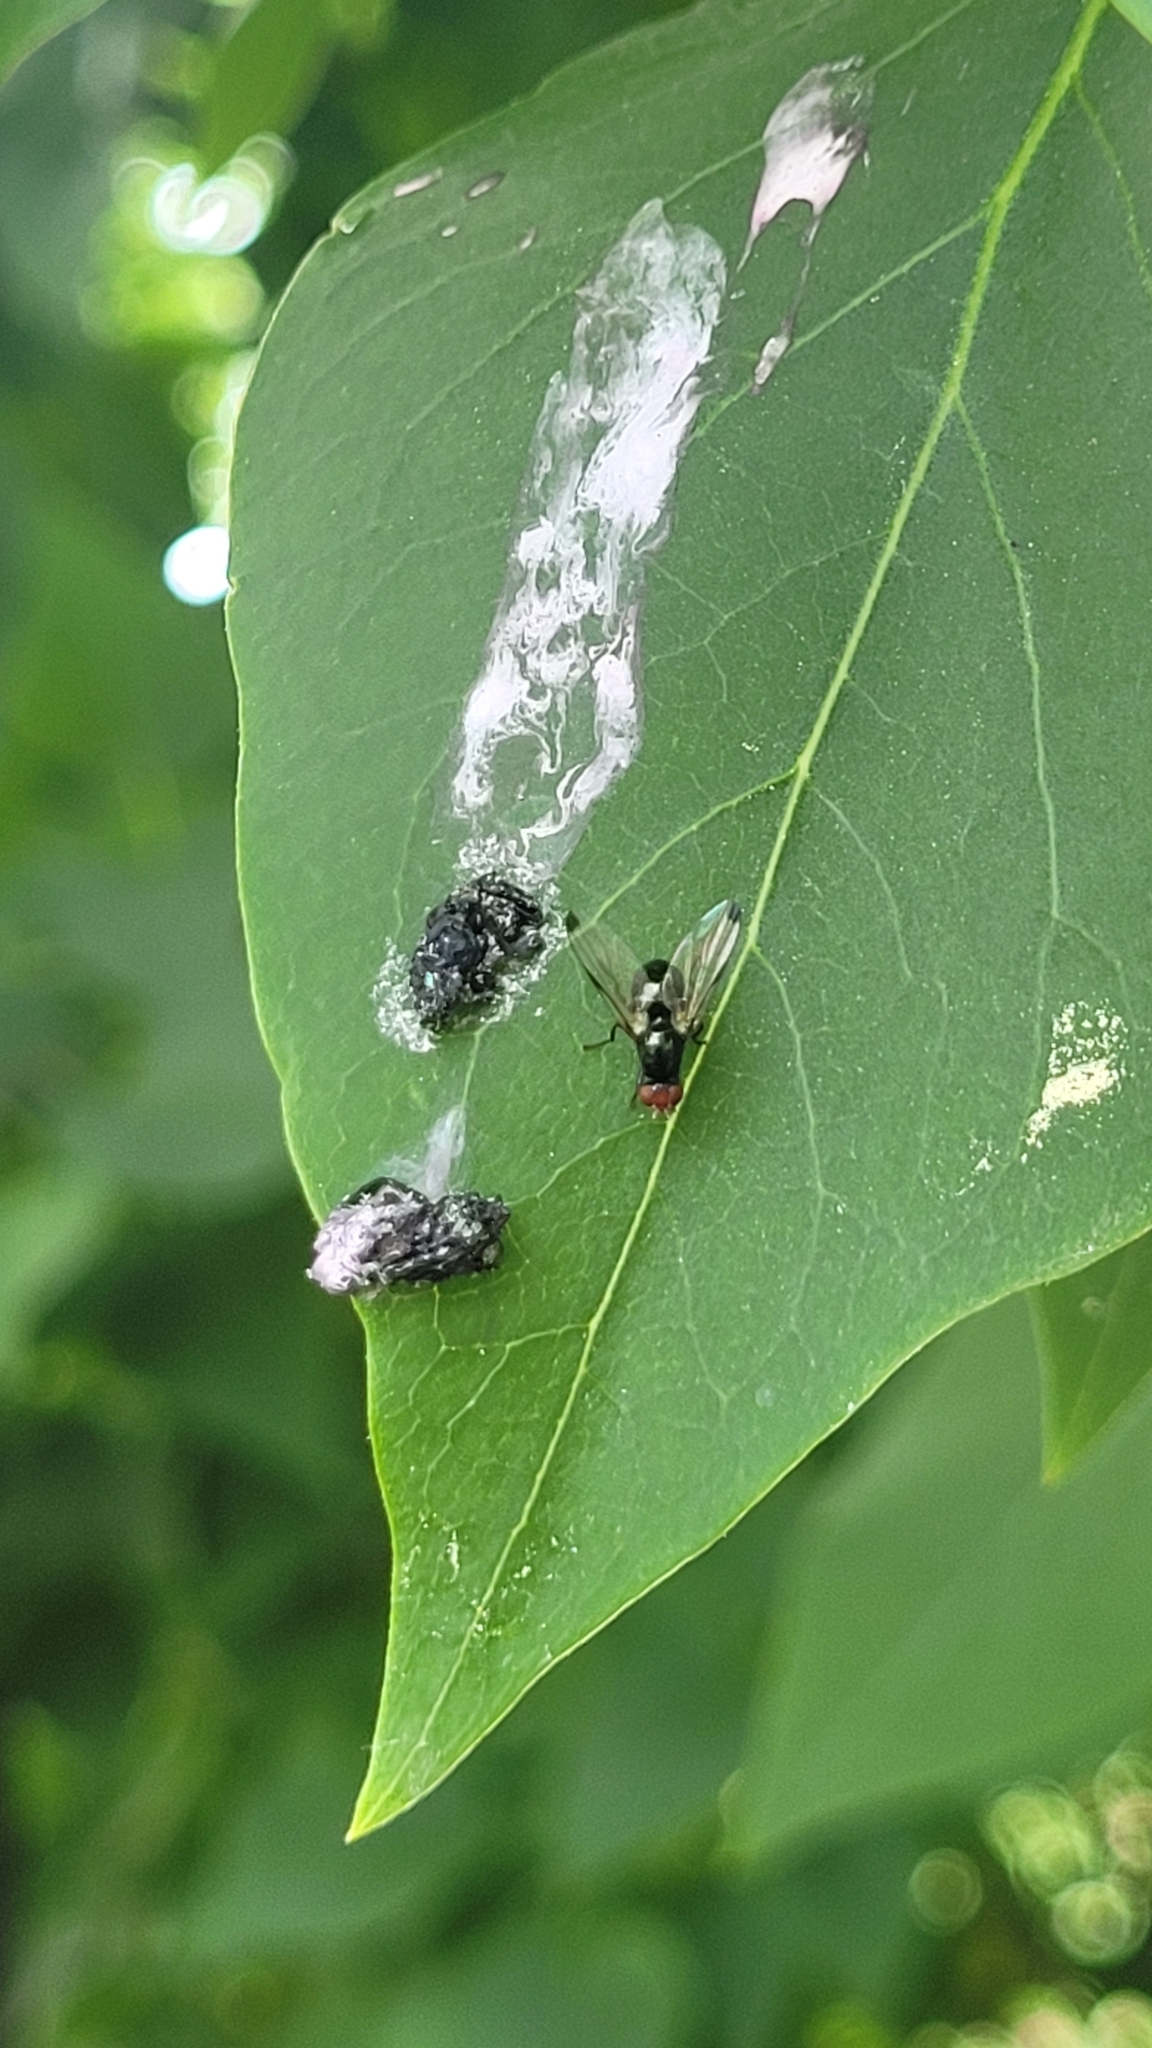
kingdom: Animalia
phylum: Arthropoda
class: Insecta
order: Diptera
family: Ulidiidae
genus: Seioptera
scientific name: Seioptera vibrans
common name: Dark-tipped wingwaver
